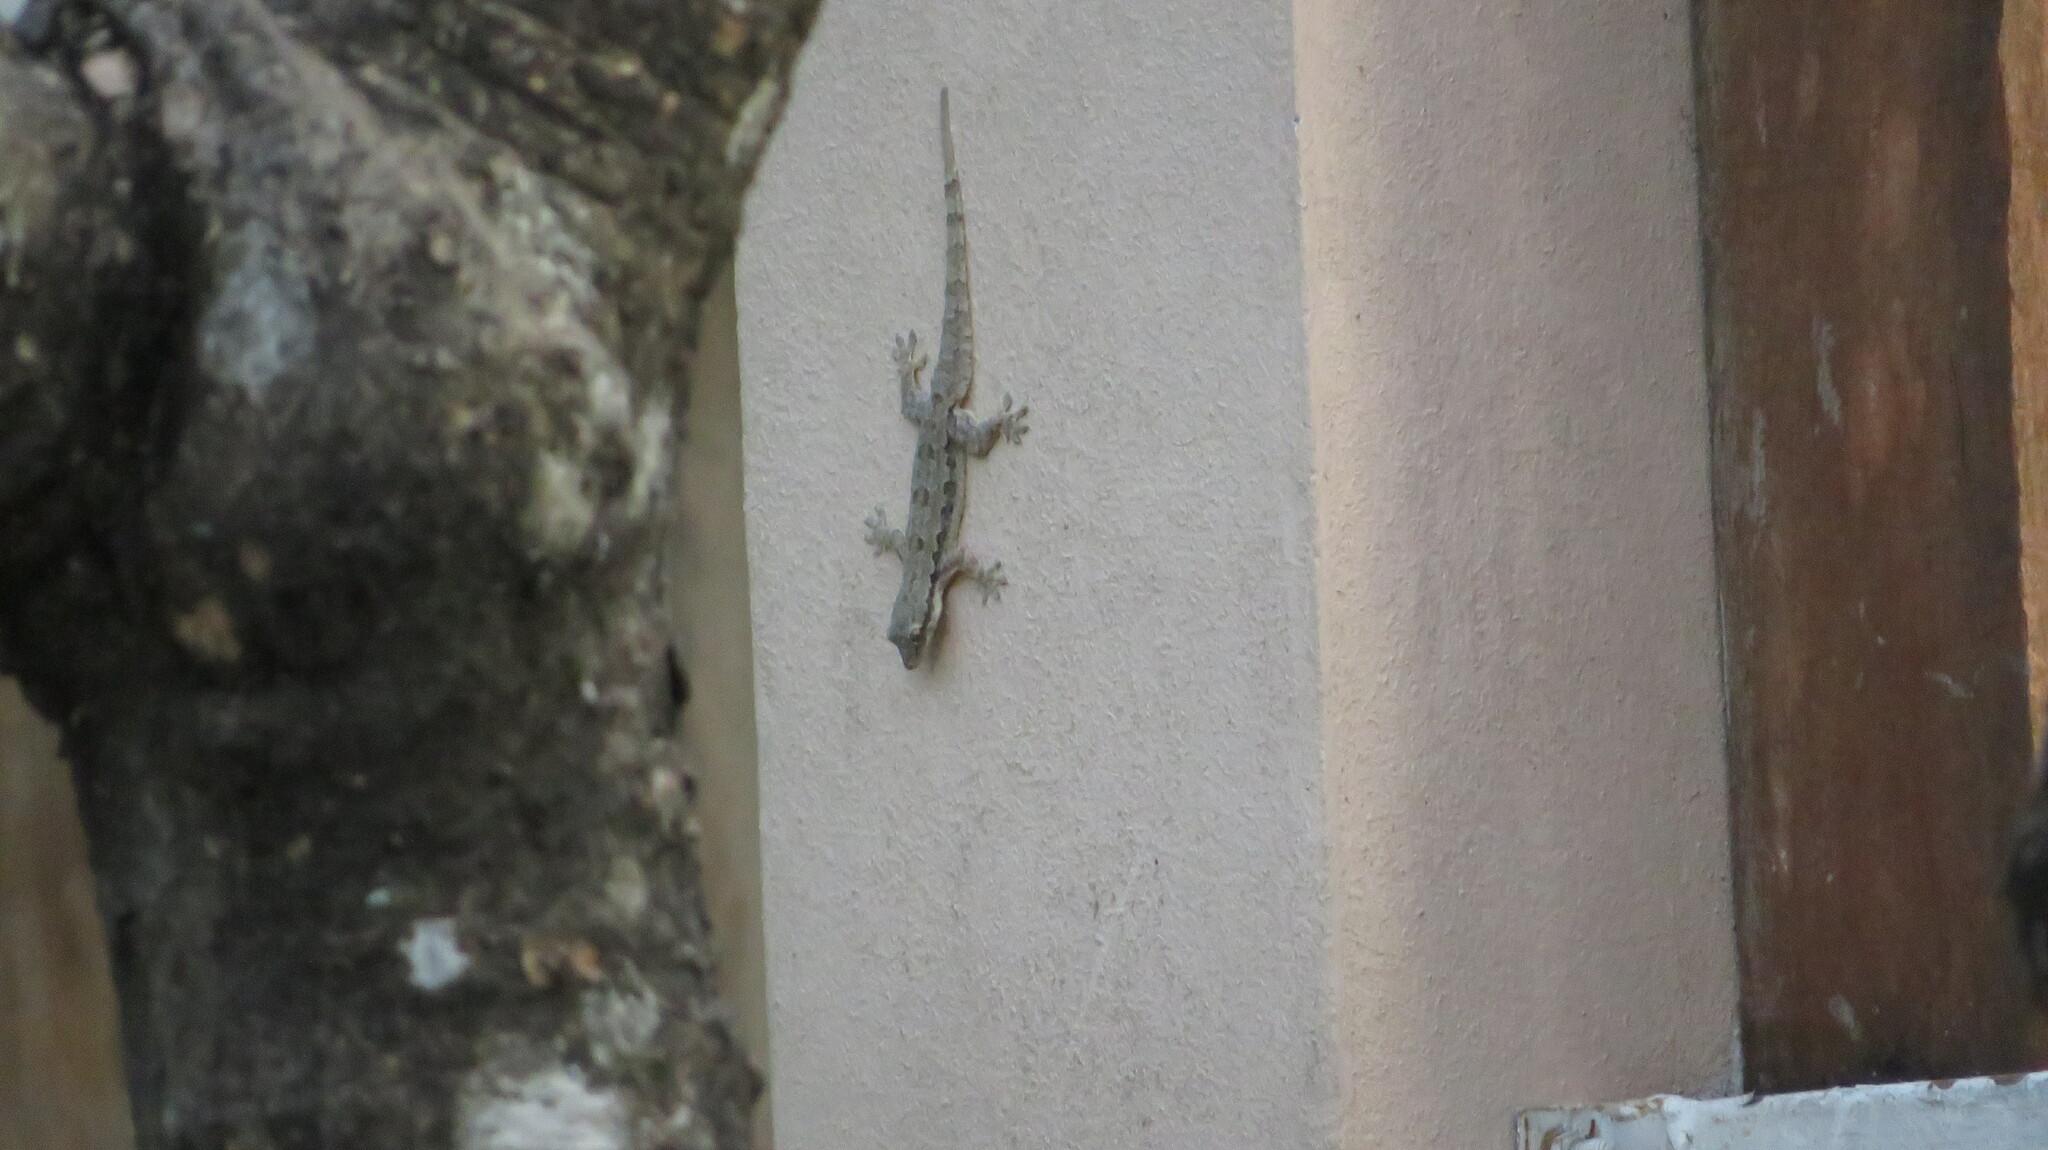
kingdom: Animalia
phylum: Chordata
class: Squamata
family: Gekkonidae
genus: Hemidactylus
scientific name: Hemidactylus platyurus
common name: Flat-tailed house gecko
